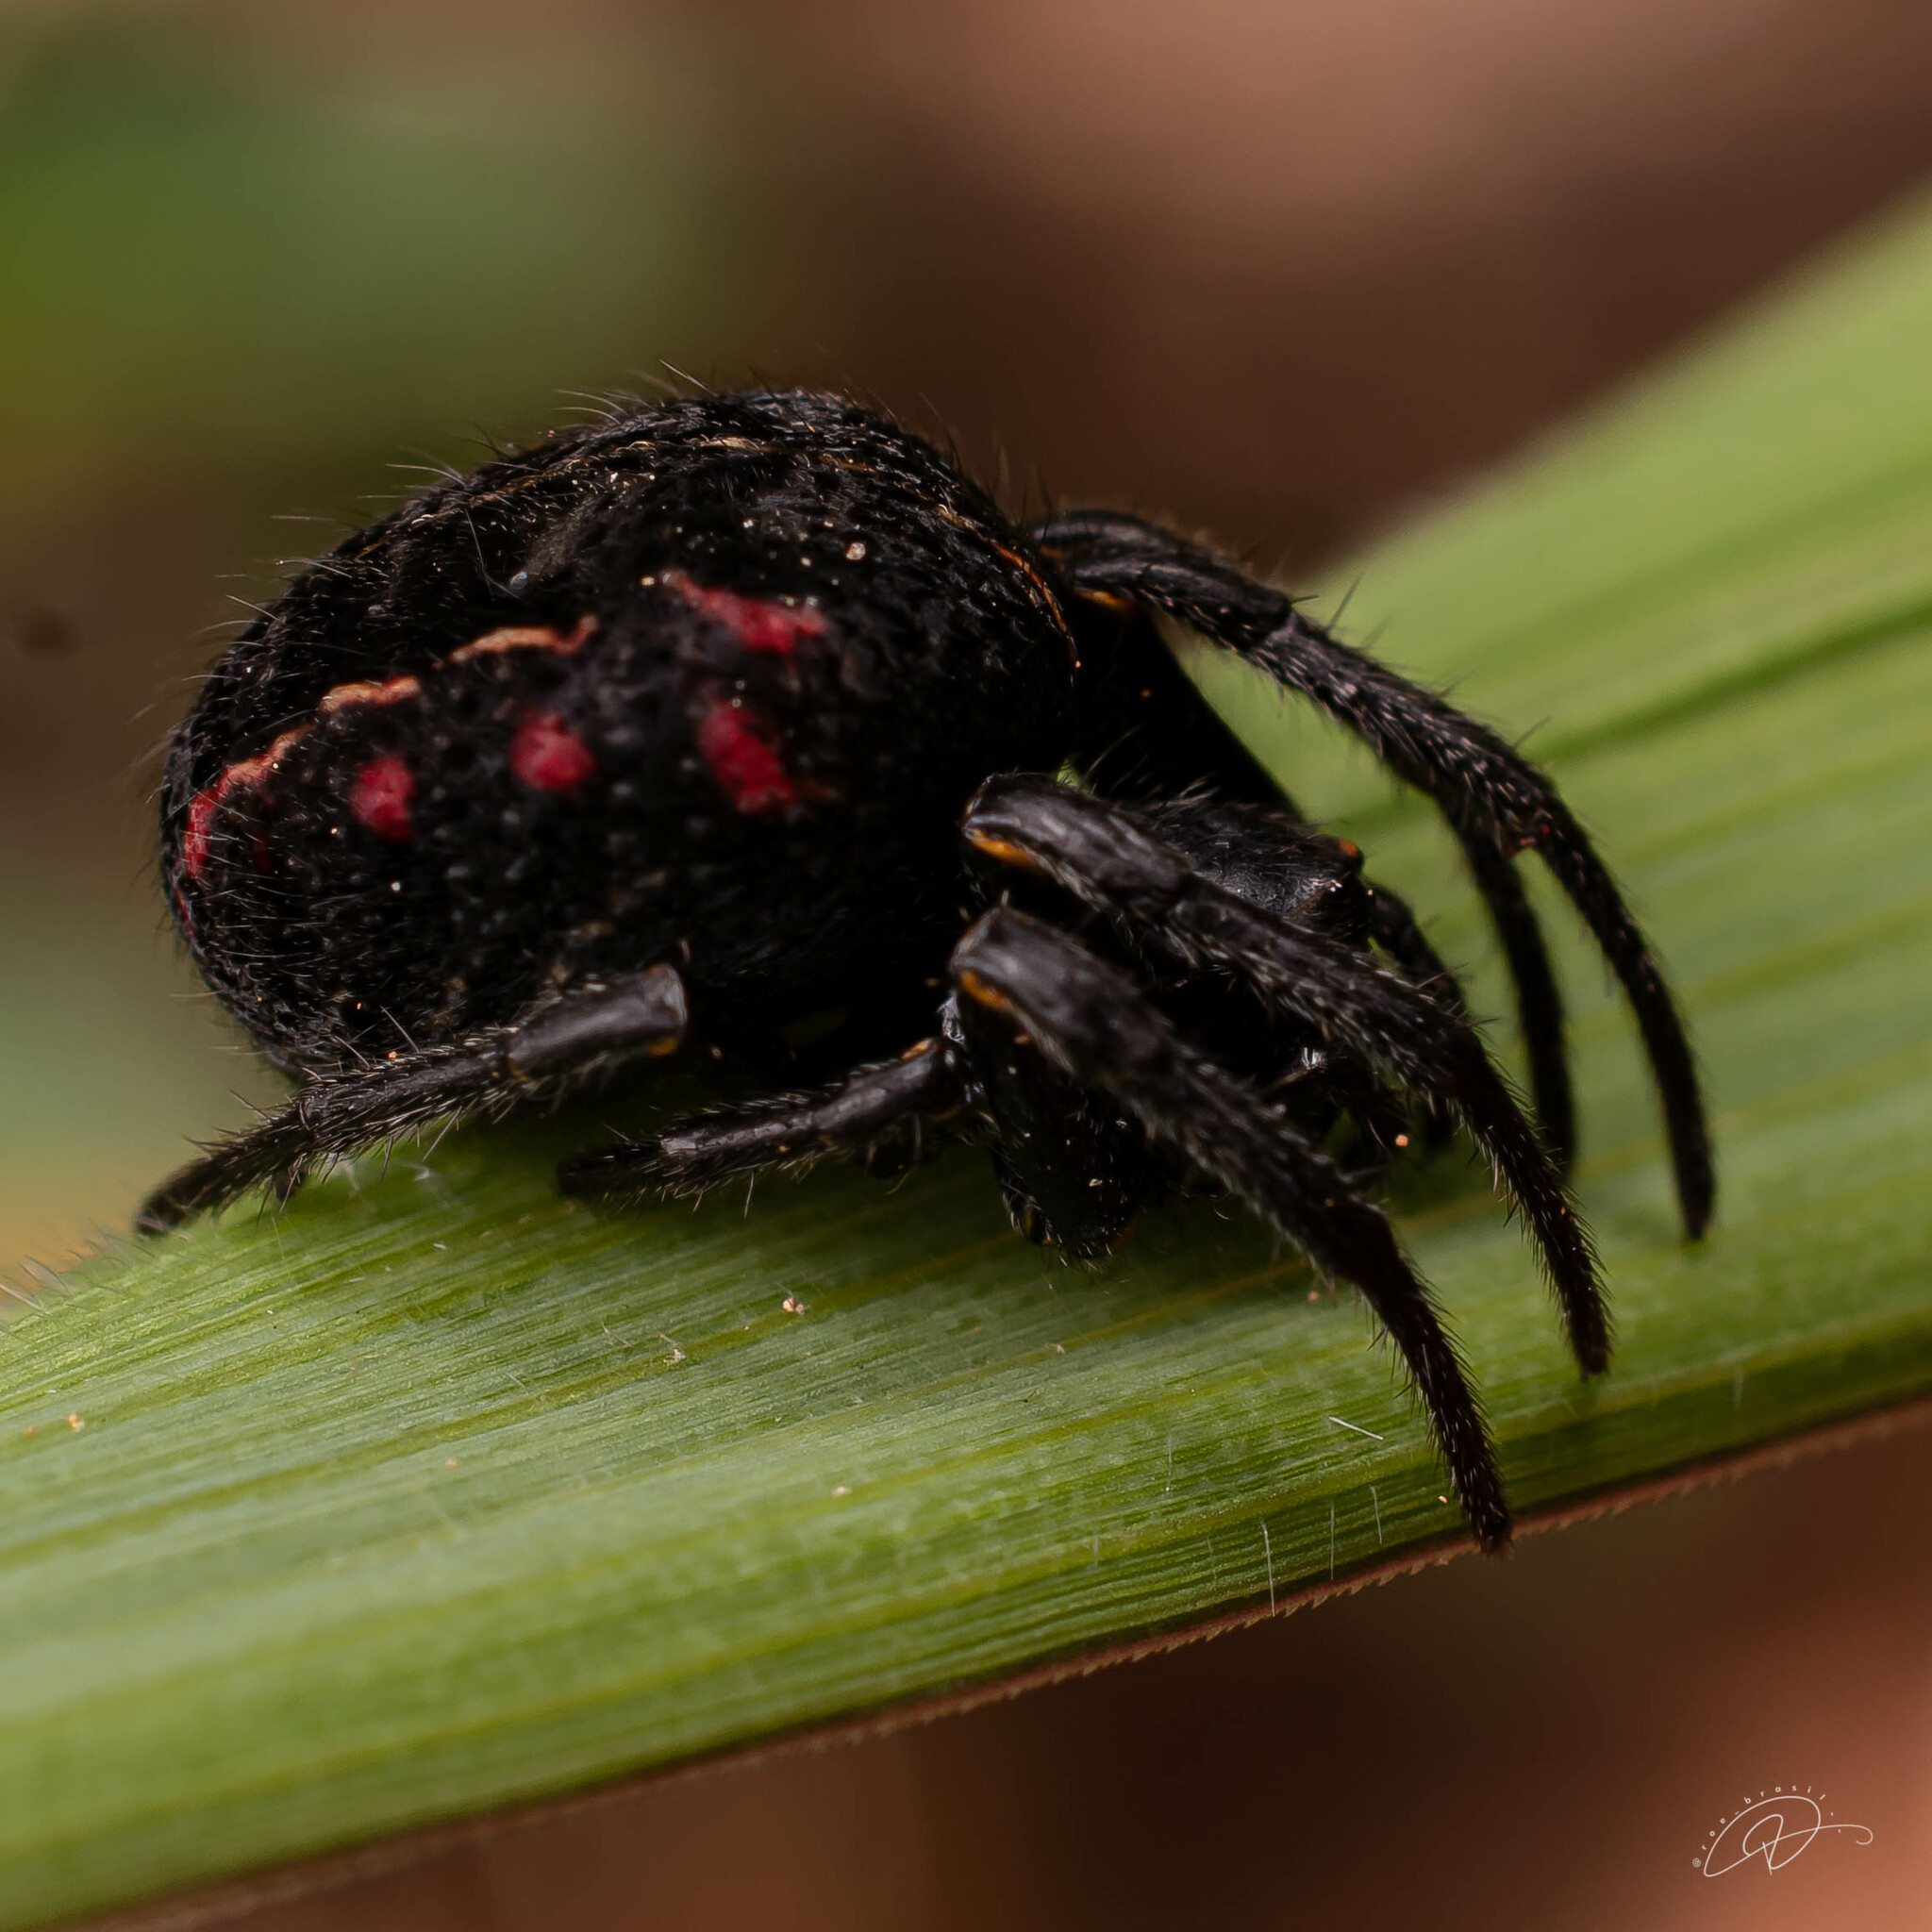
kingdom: Animalia
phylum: Arthropoda
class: Arachnida
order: Araneae
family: Araneidae
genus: Parawixia
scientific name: Parawixia bistriata
